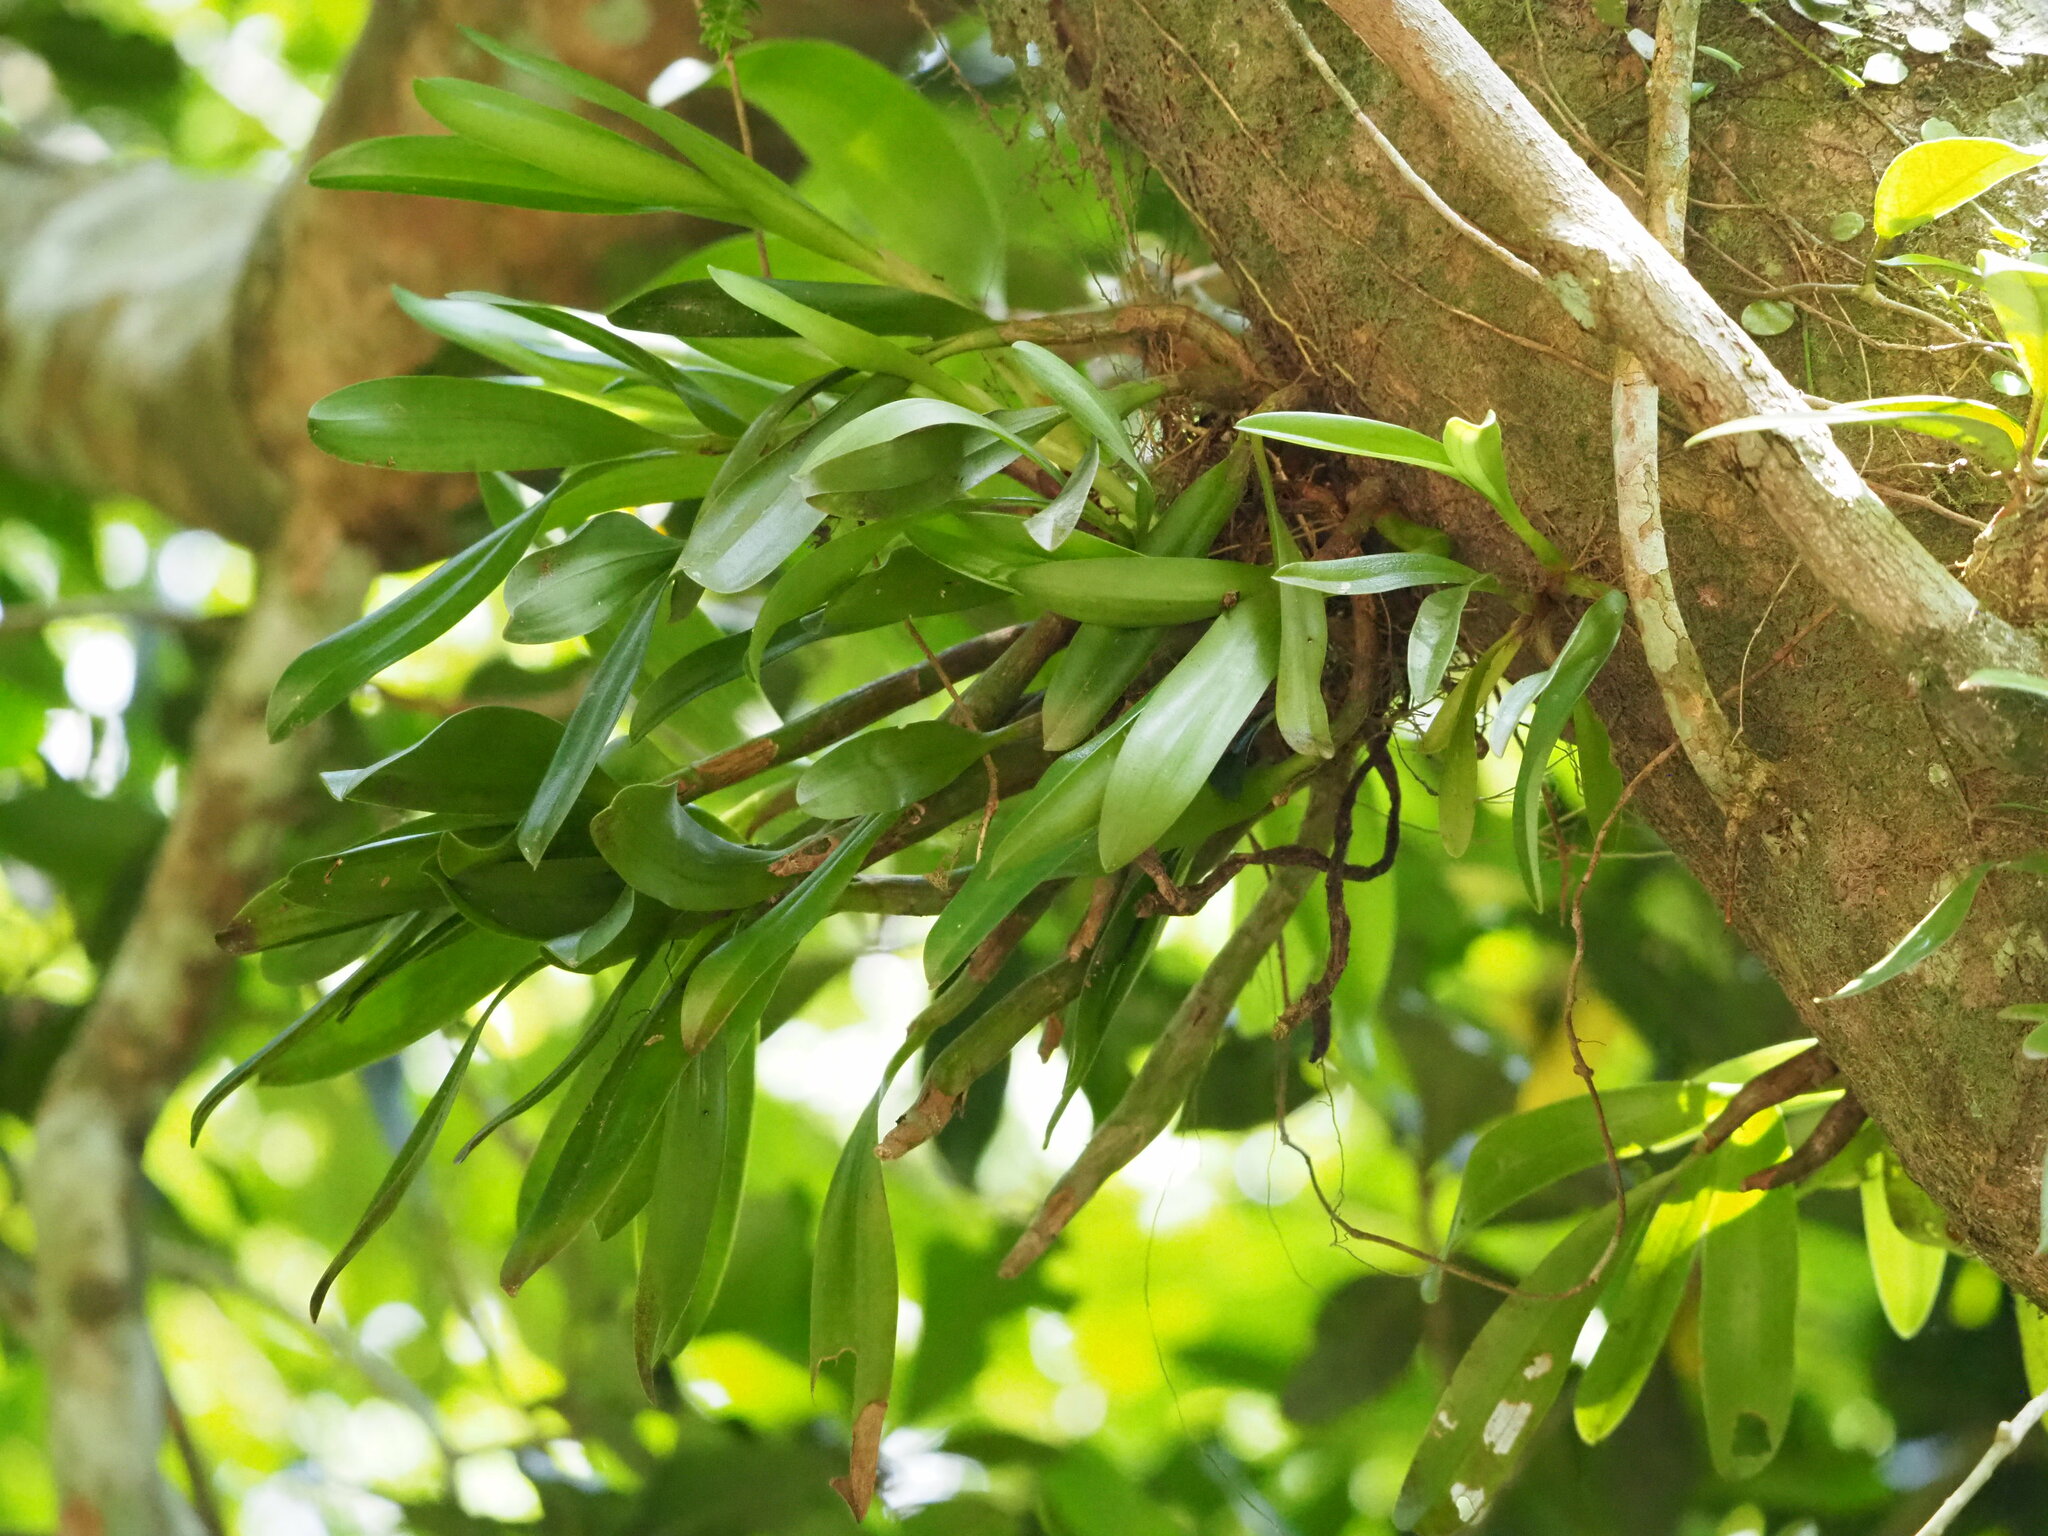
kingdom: Plantae
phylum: Tracheophyta
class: Liliopsida
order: Asparagales
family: Orchidaceae
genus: Pinalia
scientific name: Pinalia ovata
